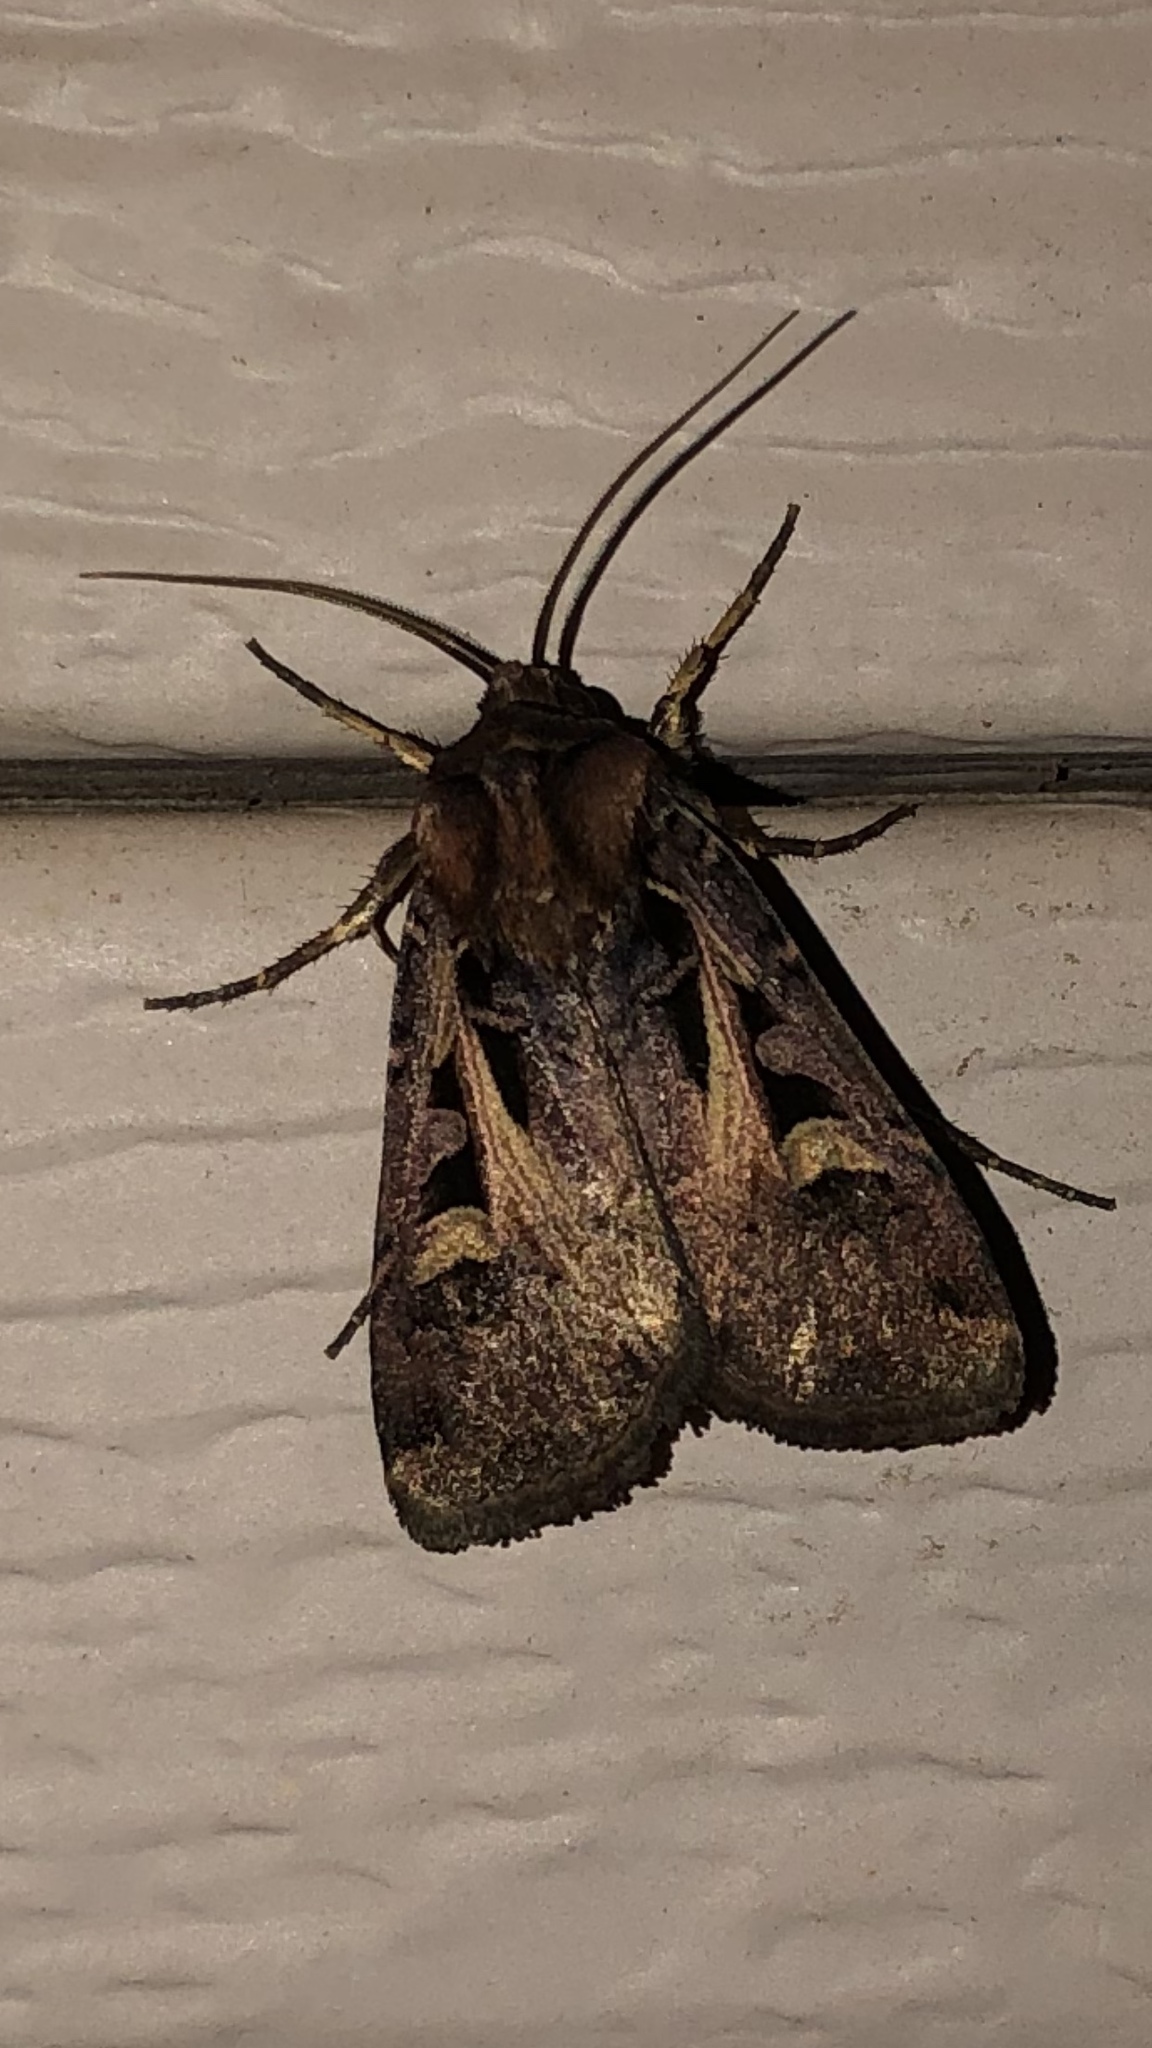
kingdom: Animalia
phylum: Arthropoda
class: Insecta
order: Lepidoptera
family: Noctuidae
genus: Feltia
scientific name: Feltia herilis
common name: Master's dart
